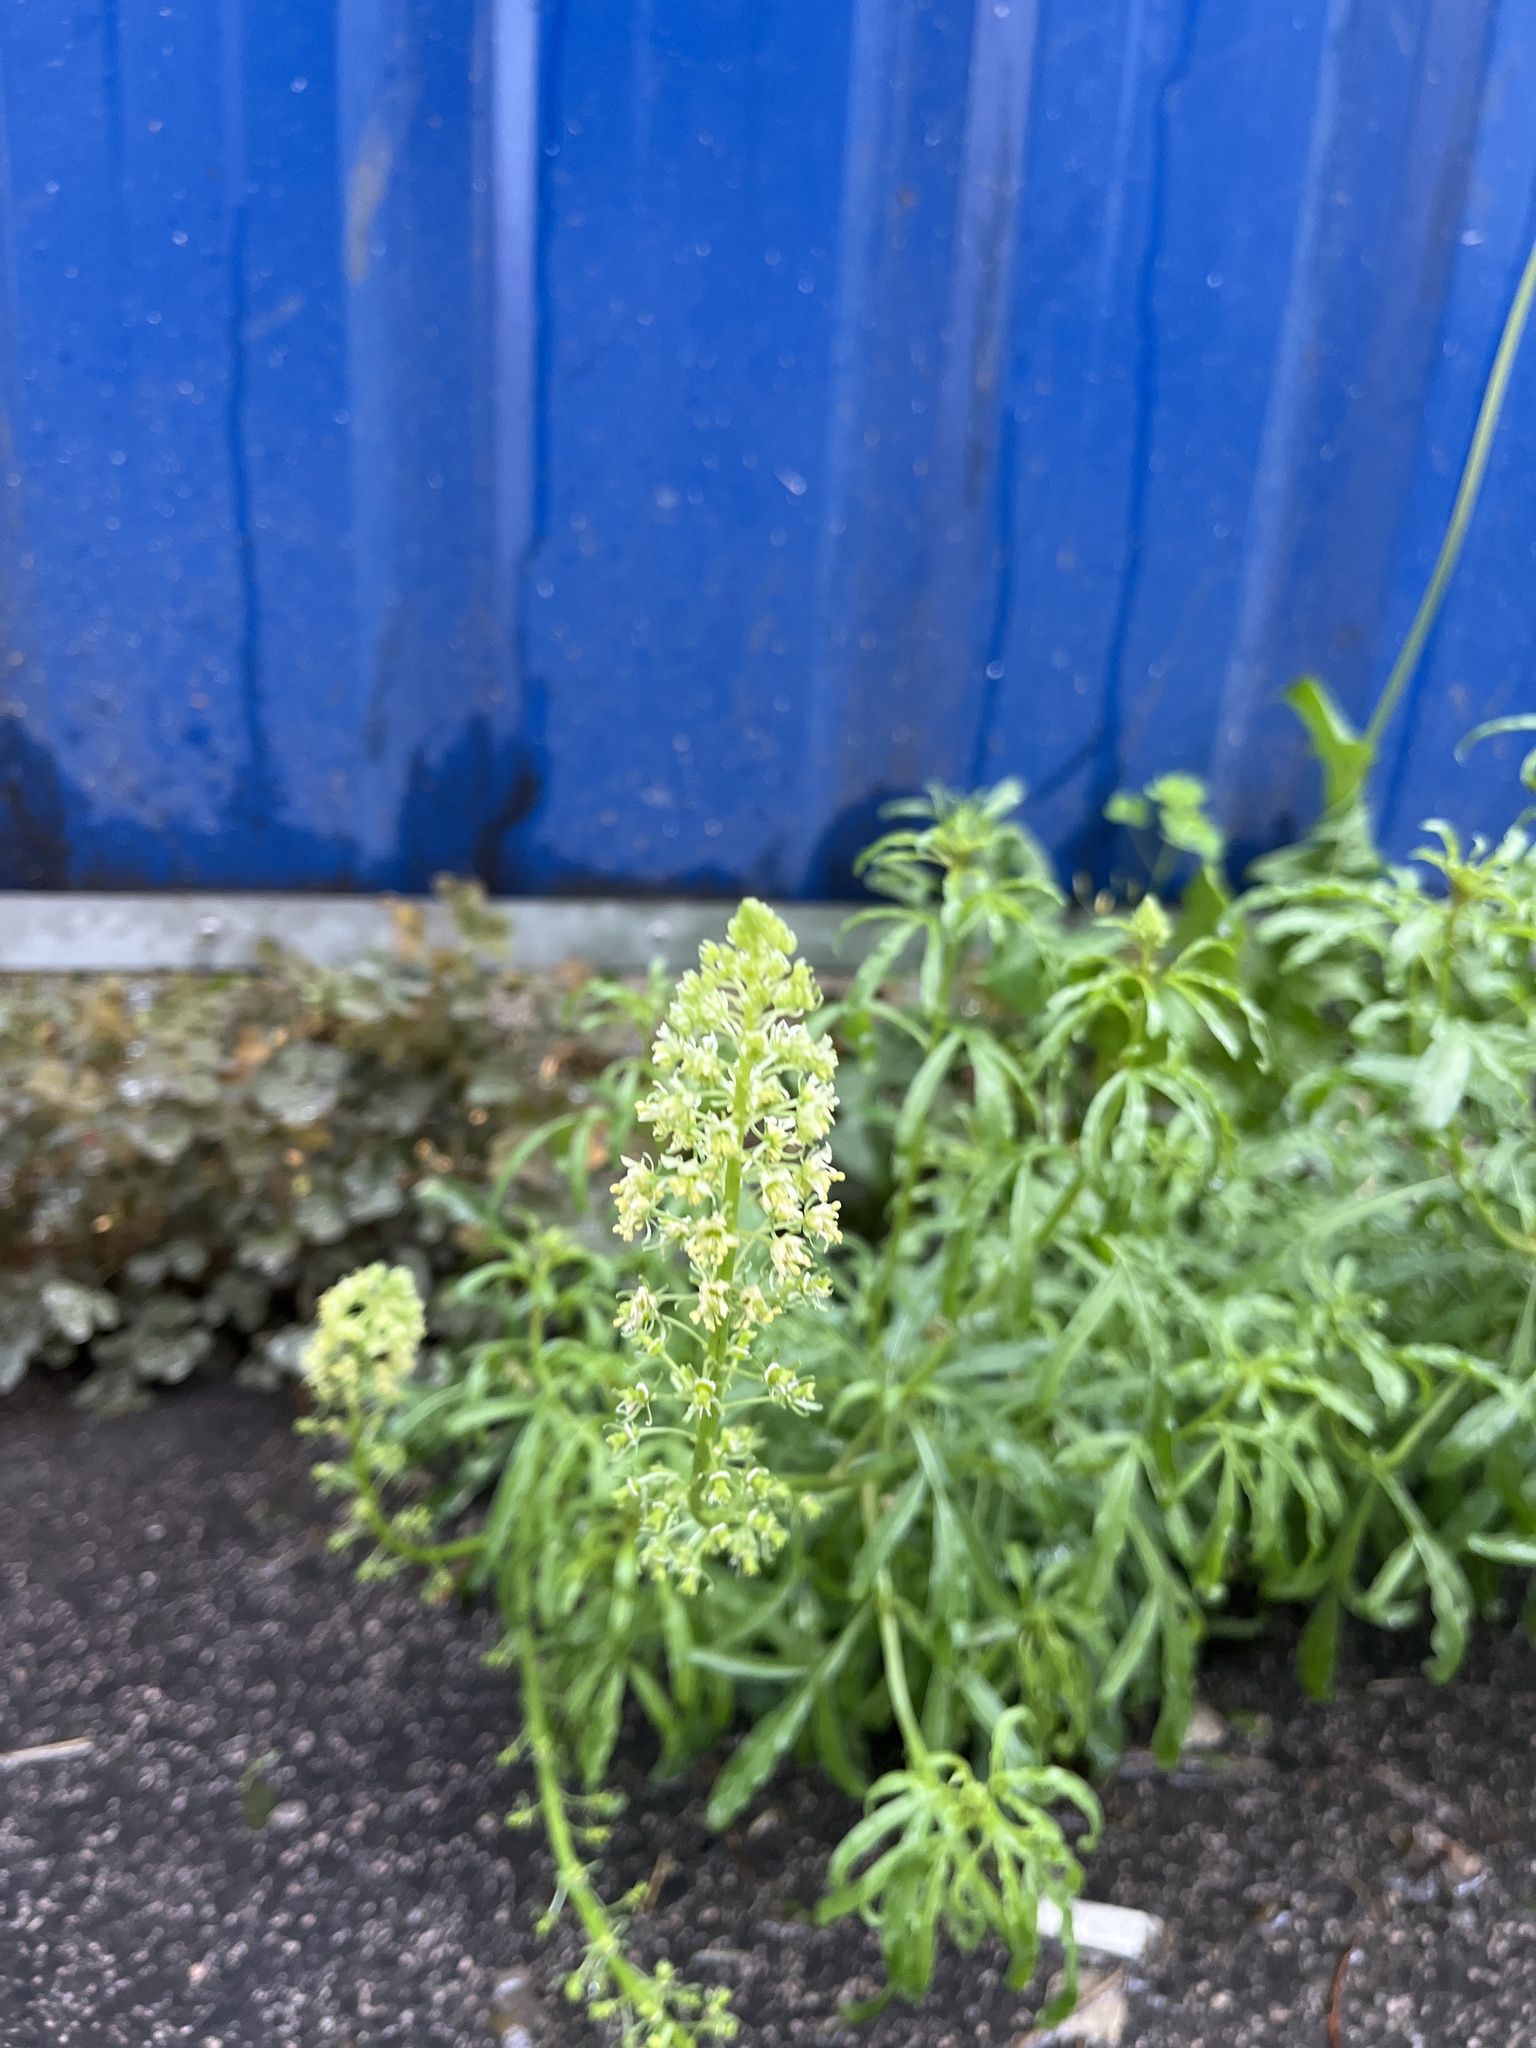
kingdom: Plantae
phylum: Tracheophyta
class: Magnoliopsida
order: Brassicales
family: Resedaceae
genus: Reseda
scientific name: Reseda lutea
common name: Wild mignonette
